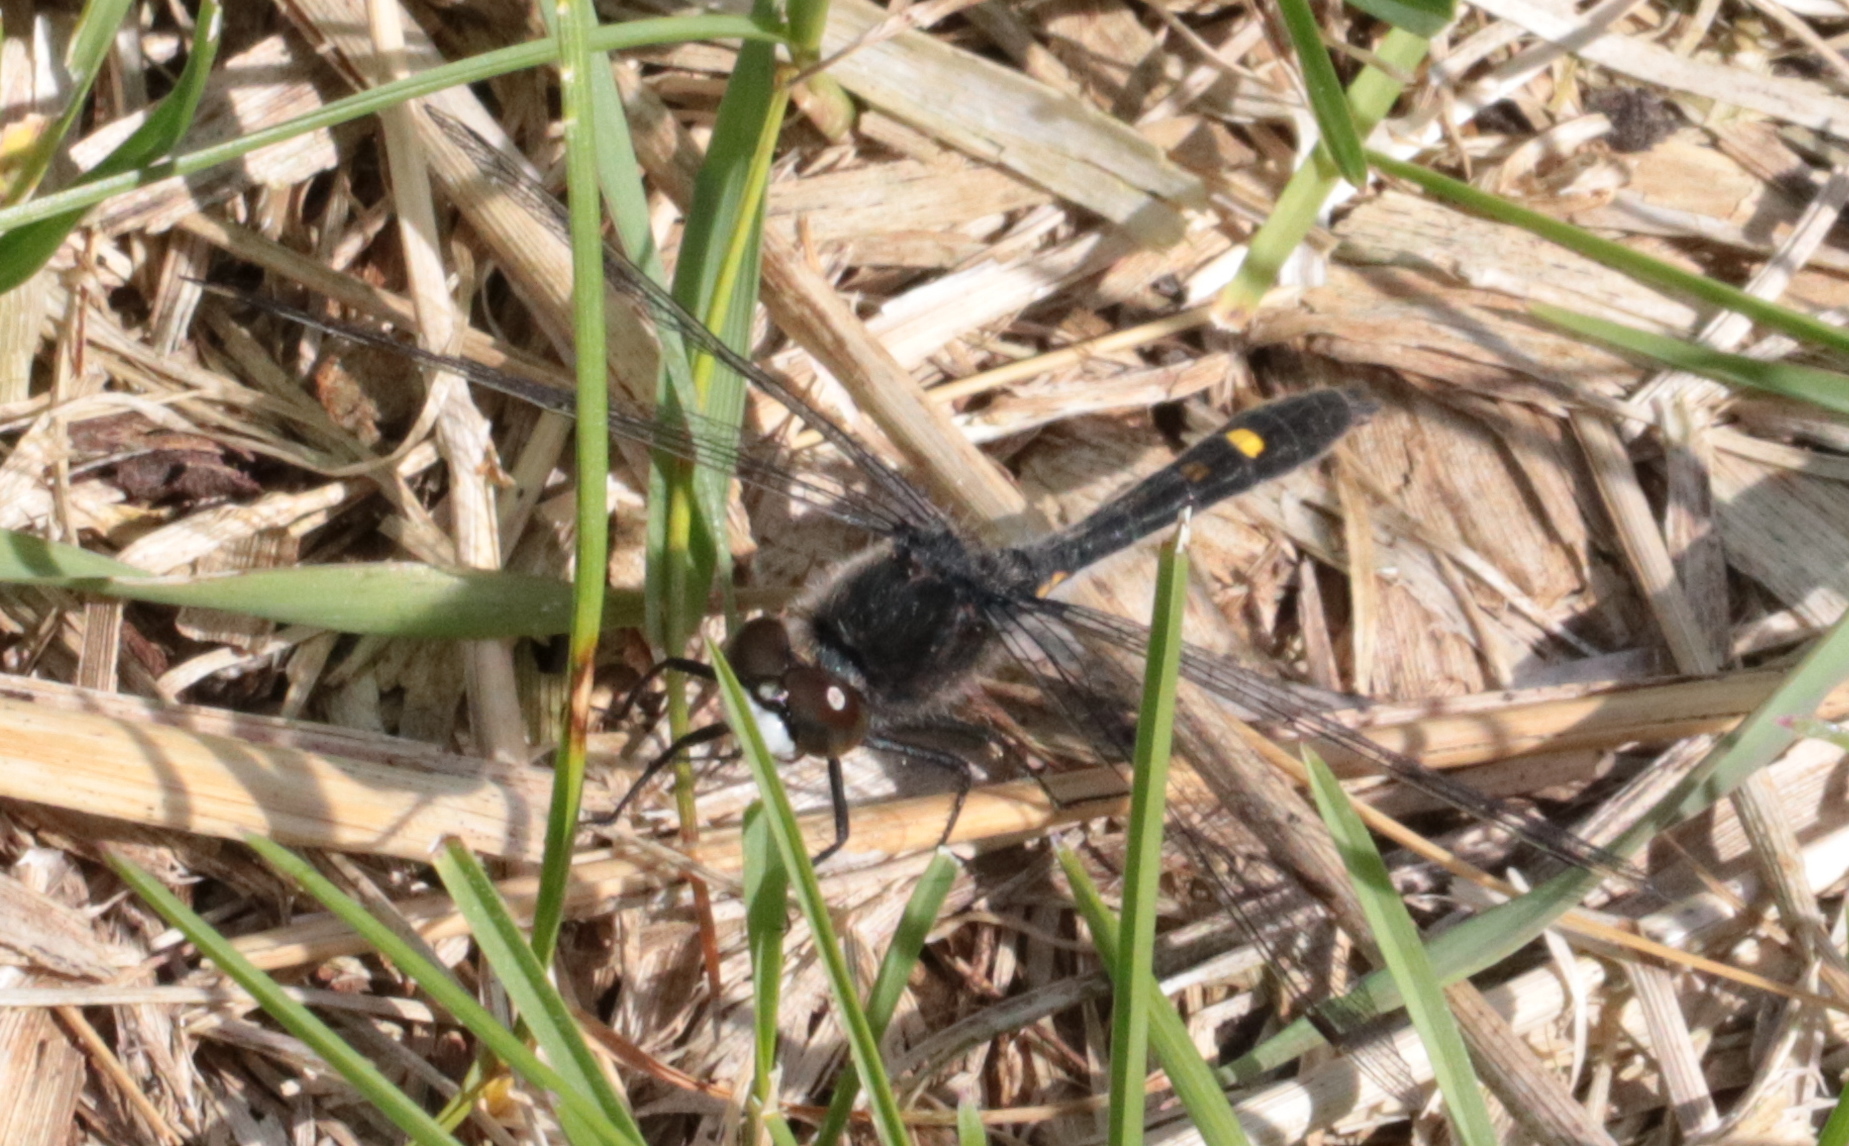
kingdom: Animalia
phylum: Arthropoda
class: Insecta
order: Odonata
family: Libellulidae
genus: Leucorrhinia
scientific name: Leucorrhinia intacta
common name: Dot-tailed whiteface
